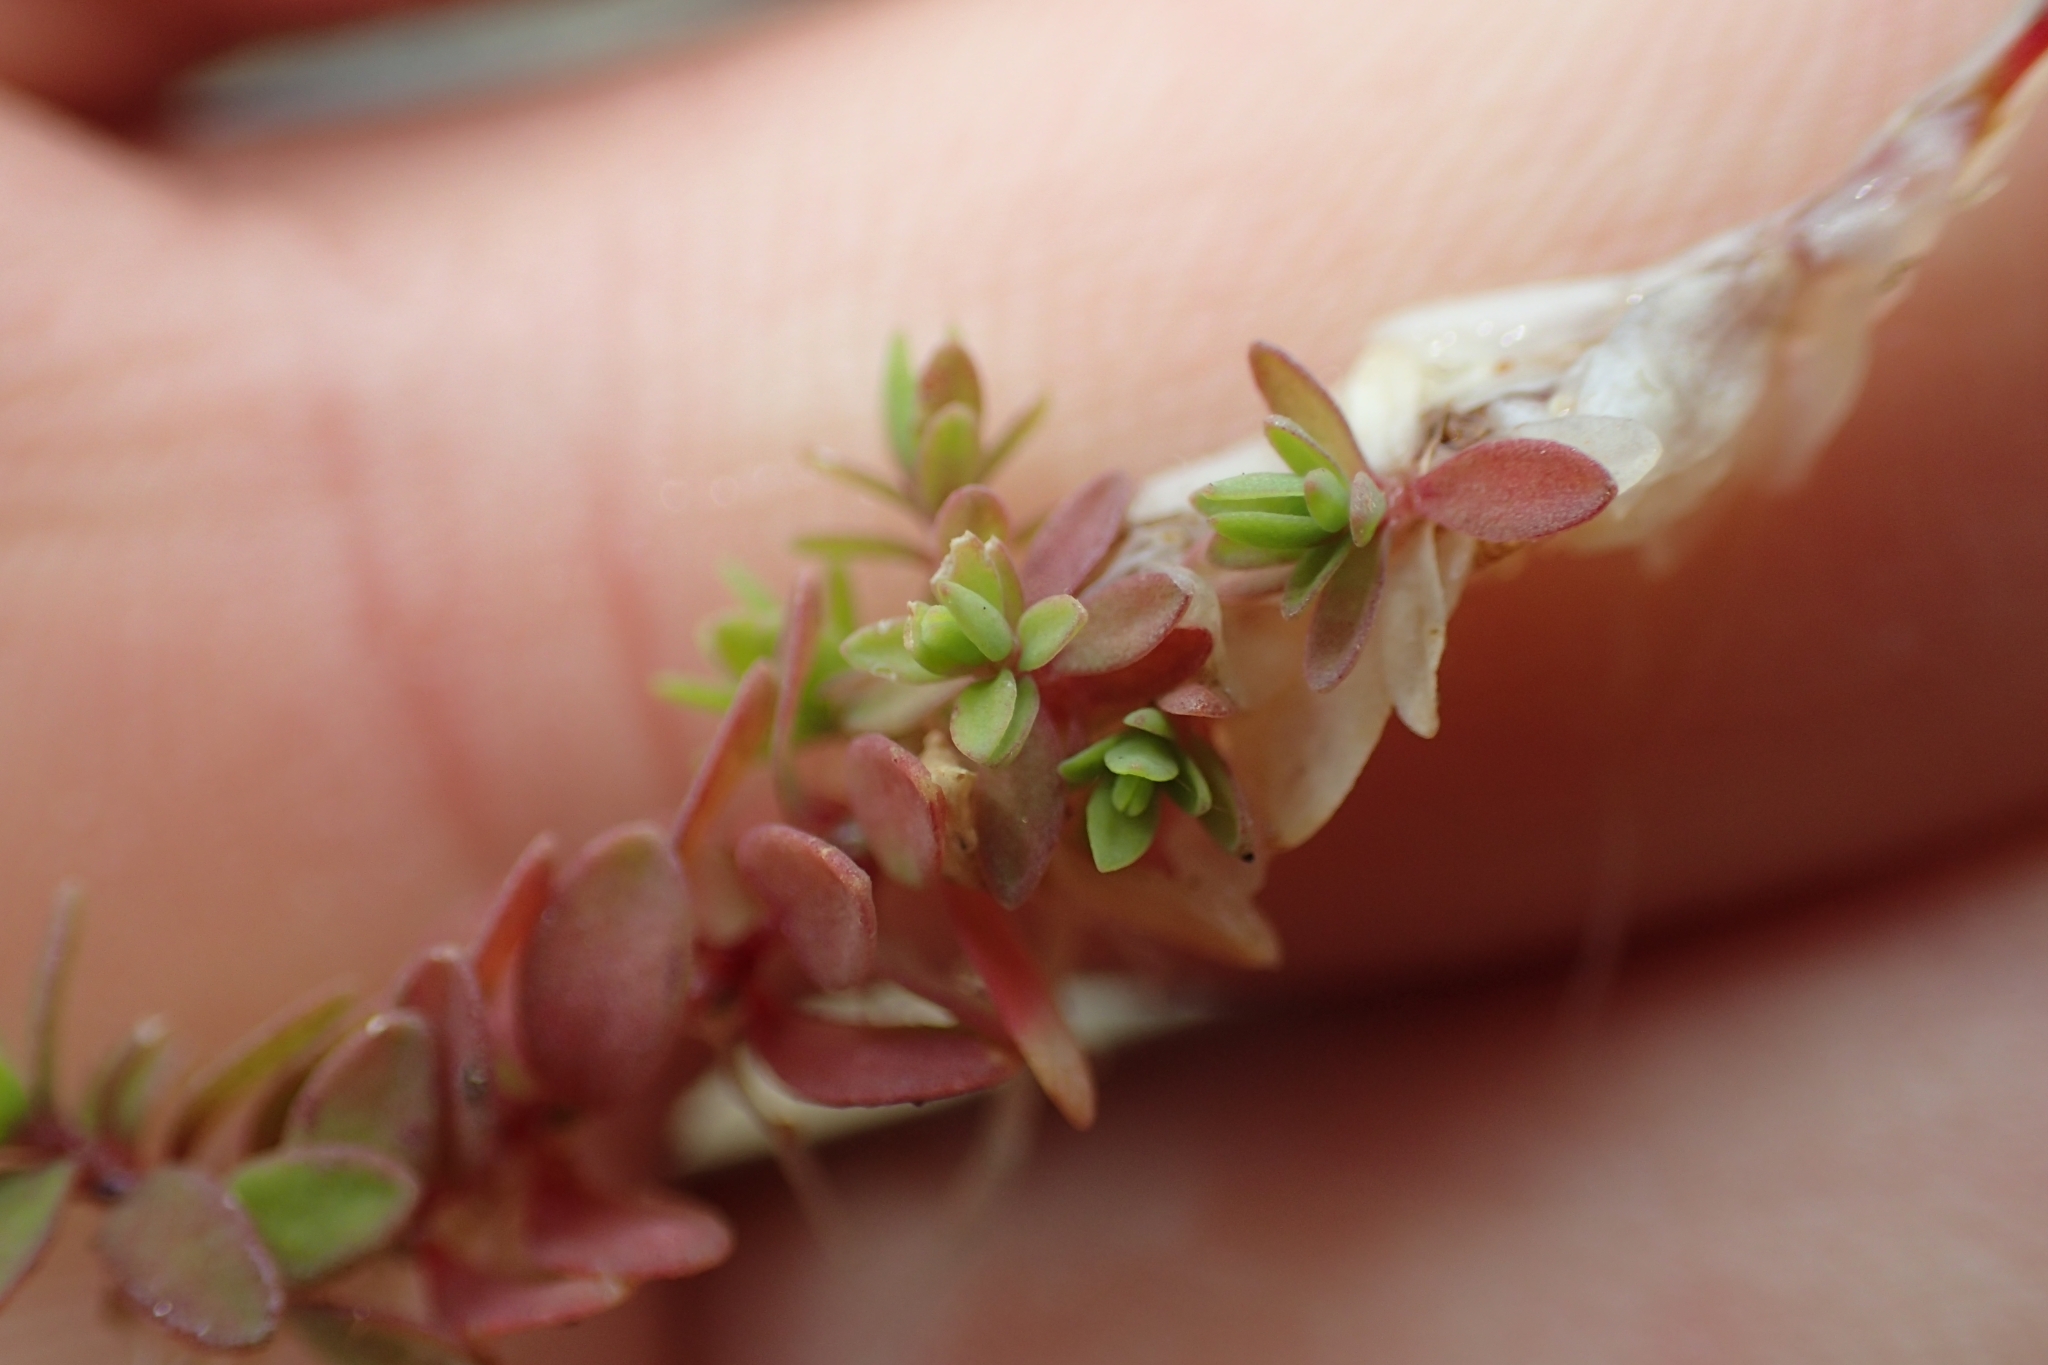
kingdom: Plantae
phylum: Tracheophyta
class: Magnoliopsida
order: Caryophyllales
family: Caryophyllaceae
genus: Illecebrum
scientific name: Illecebrum verticillatum
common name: Coral necklace
